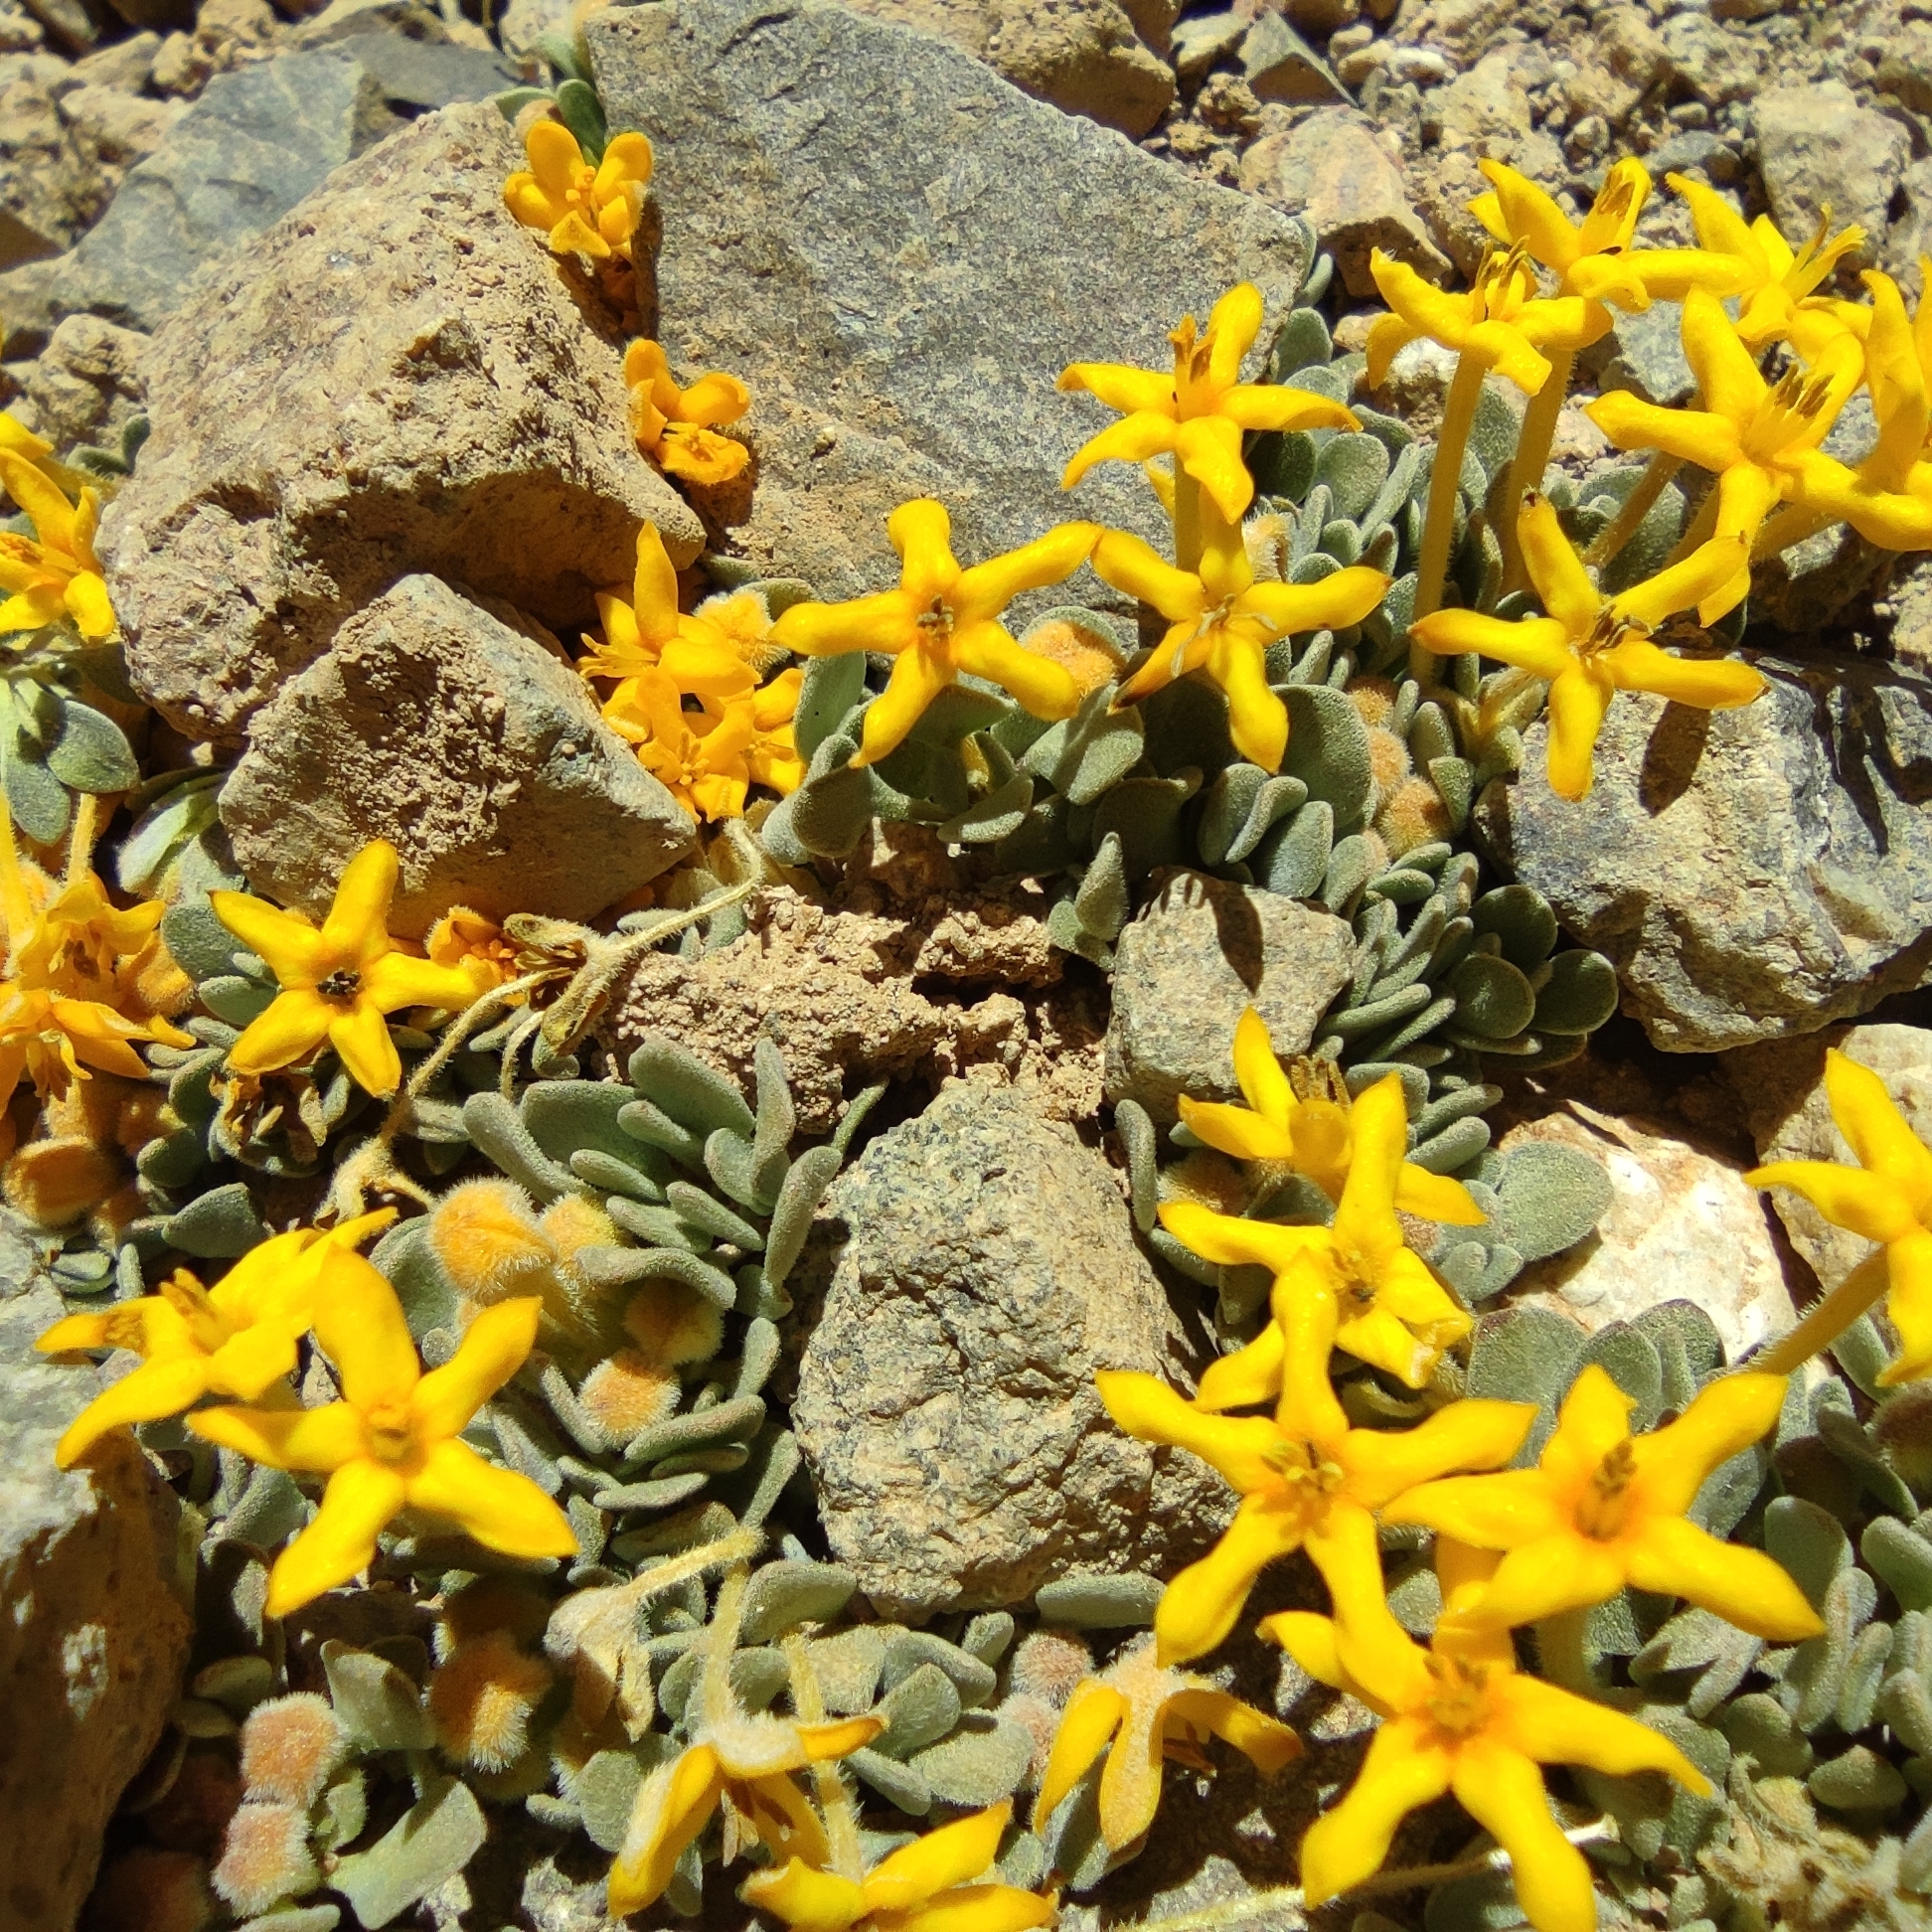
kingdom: Plantae
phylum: Tracheophyta
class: Magnoliopsida
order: Gentianales
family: Rubiaceae
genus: Cruckshanksia
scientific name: Cruckshanksia macrantha
